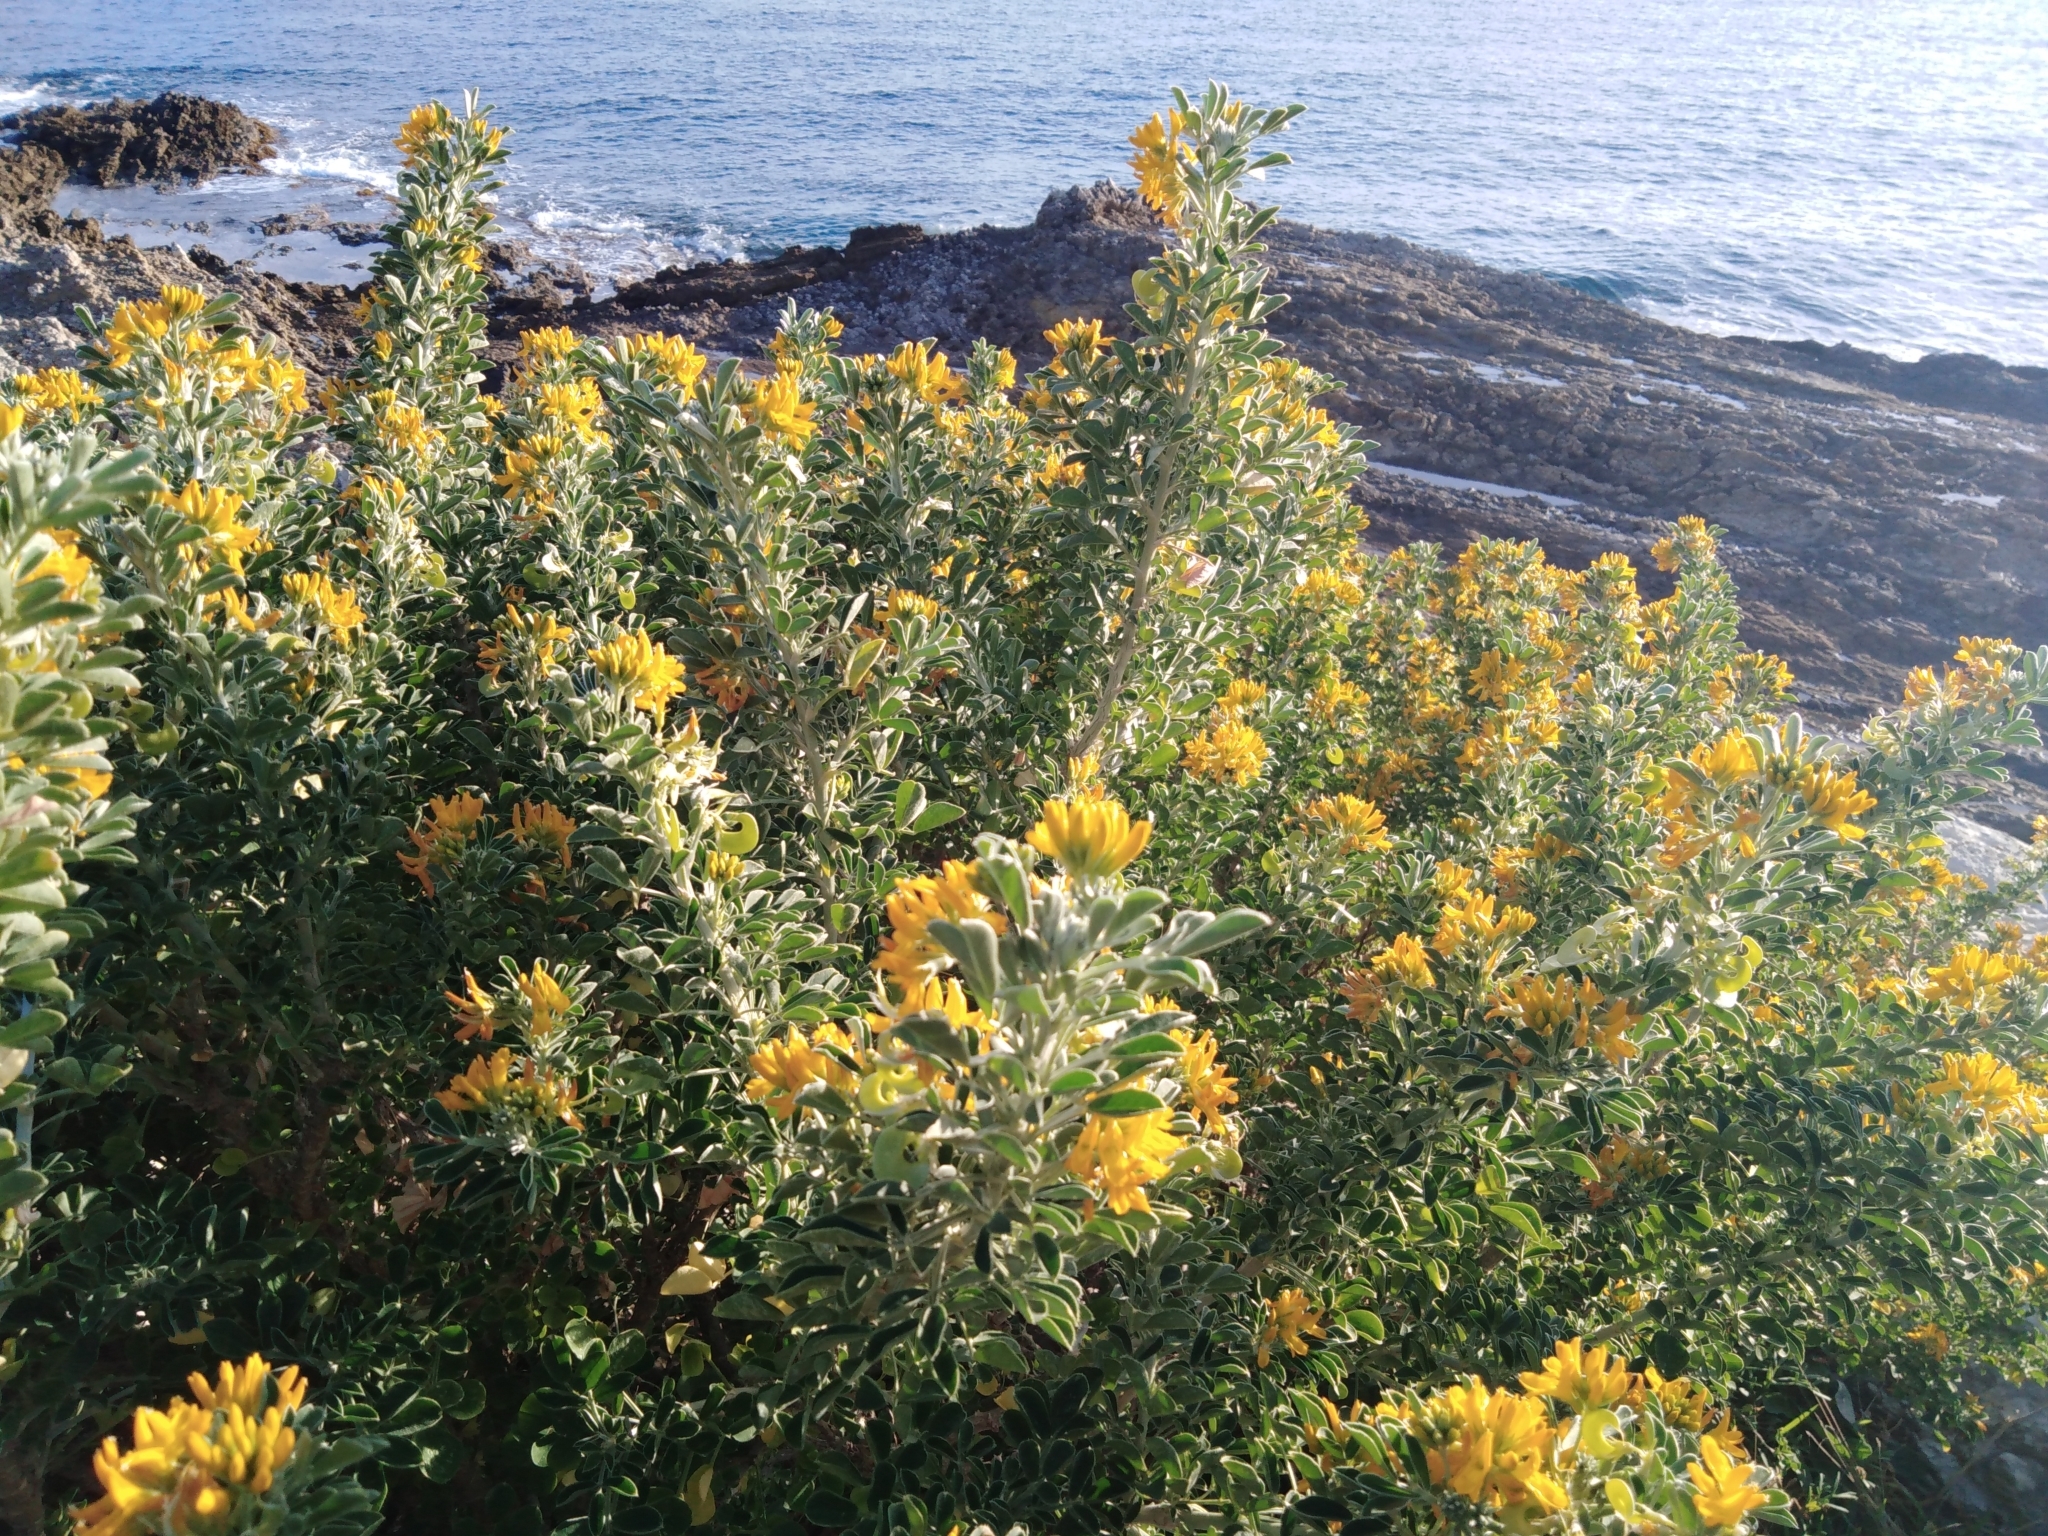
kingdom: Plantae
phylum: Tracheophyta
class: Magnoliopsida
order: Fabales
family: Fabaceae
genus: Medicago
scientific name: Medicago arborea
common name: Moon trefoil
